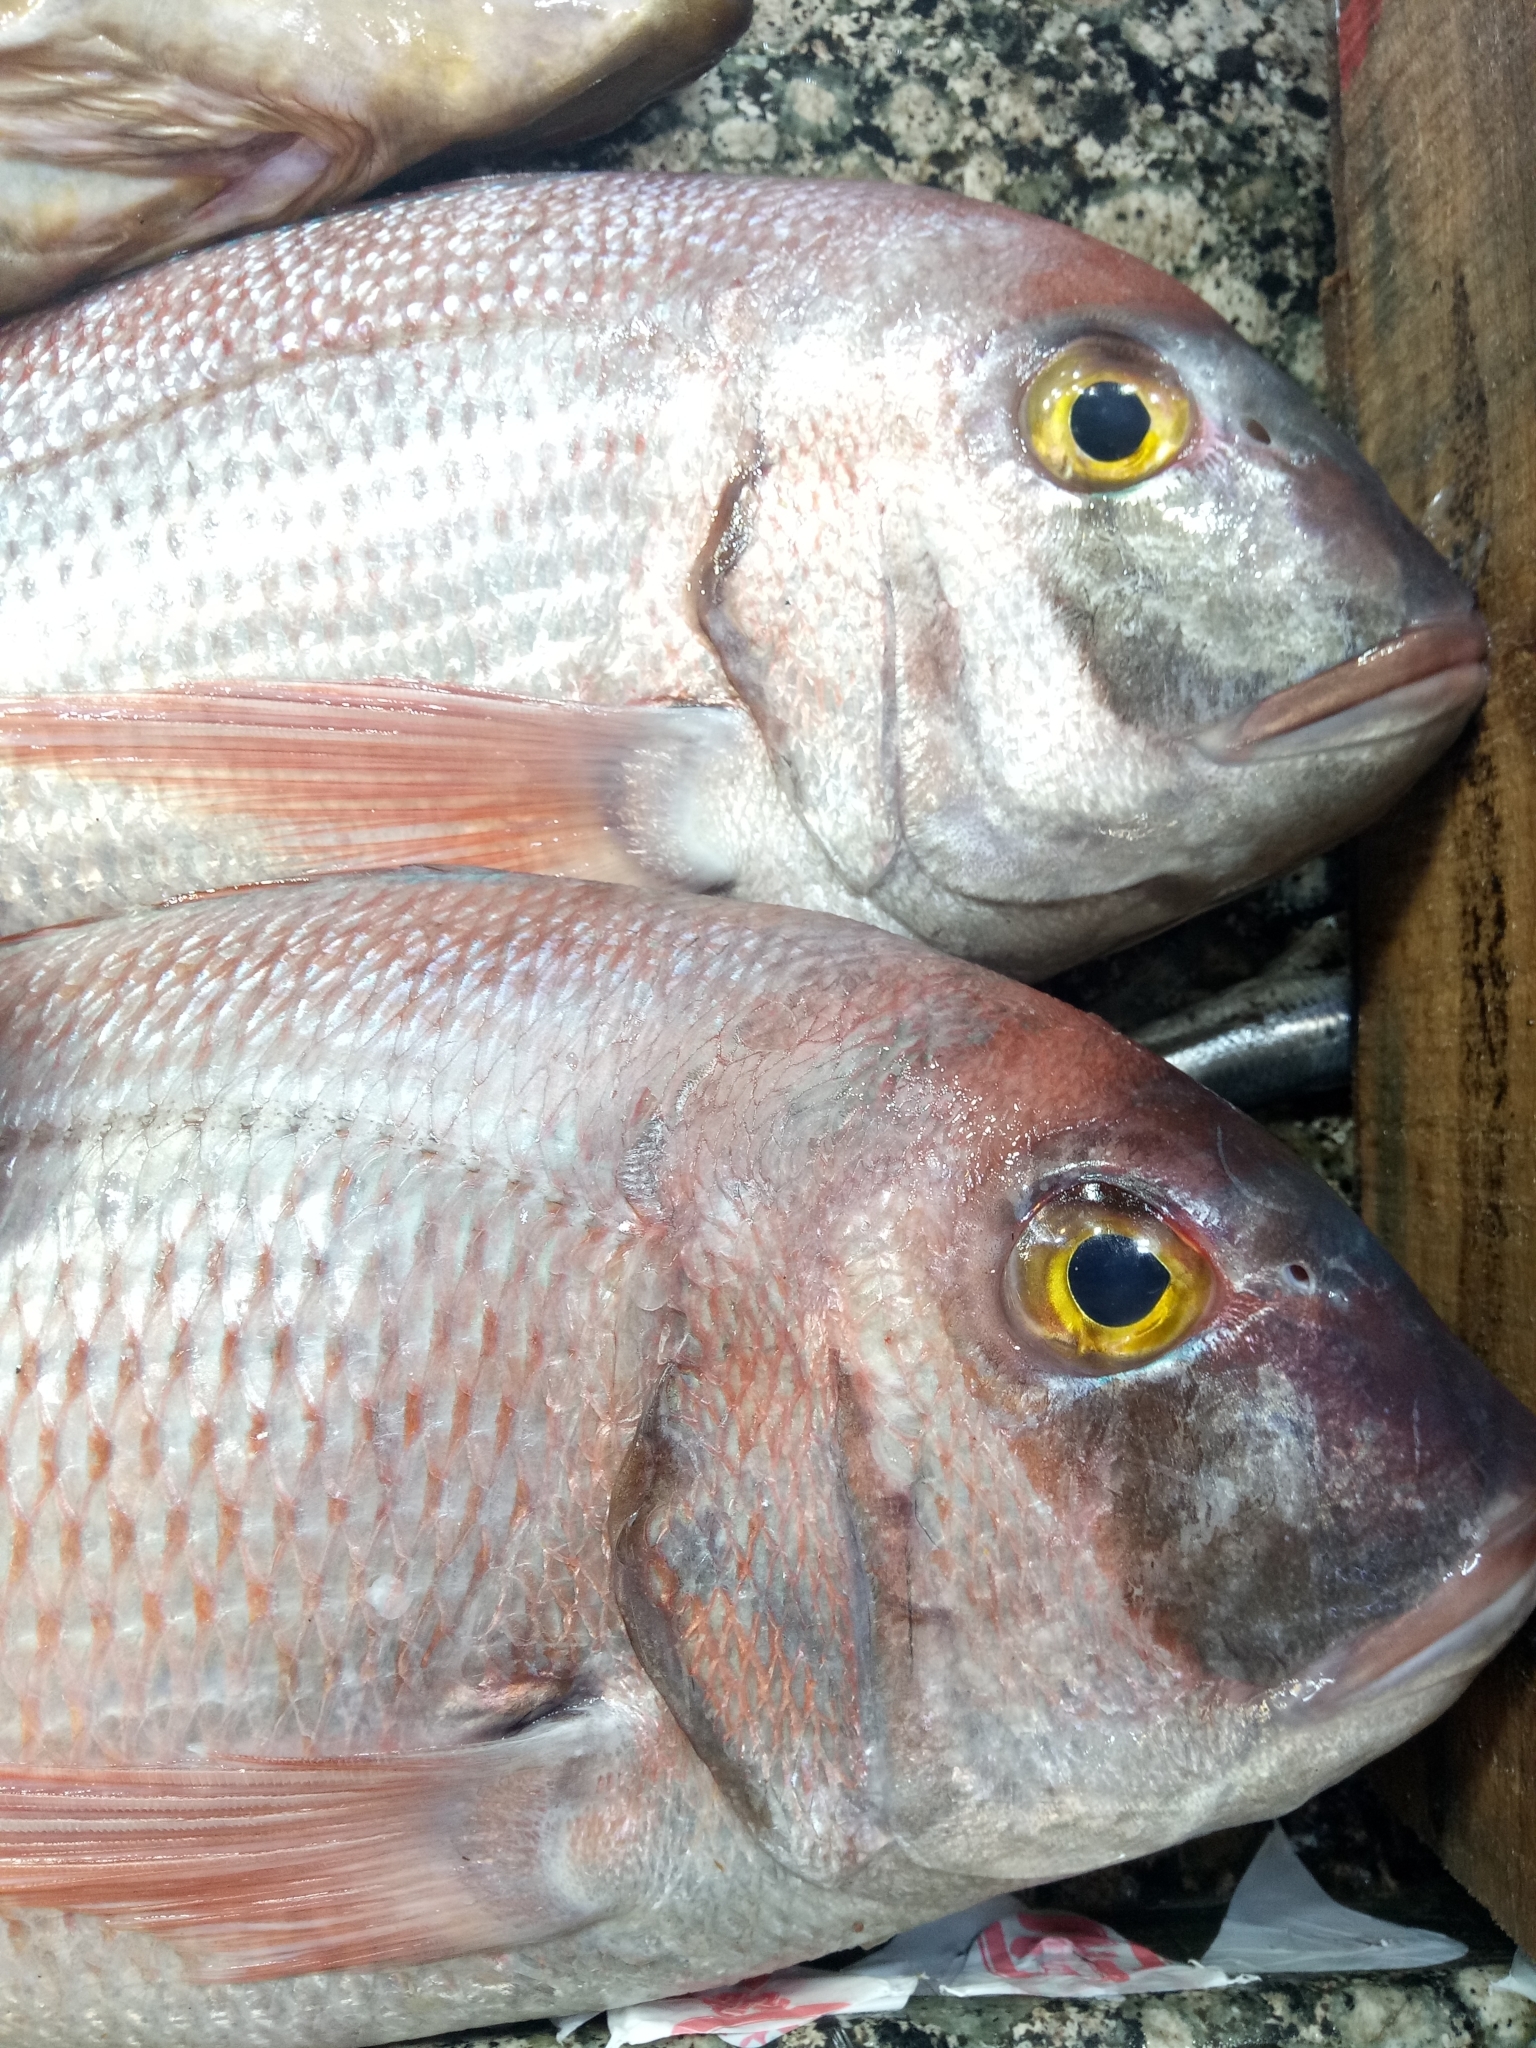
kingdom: Animalia
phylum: Chordata
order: Perciformes
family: Sparidae
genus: Pagrus
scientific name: Pagrus pagrus
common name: Red porgy
